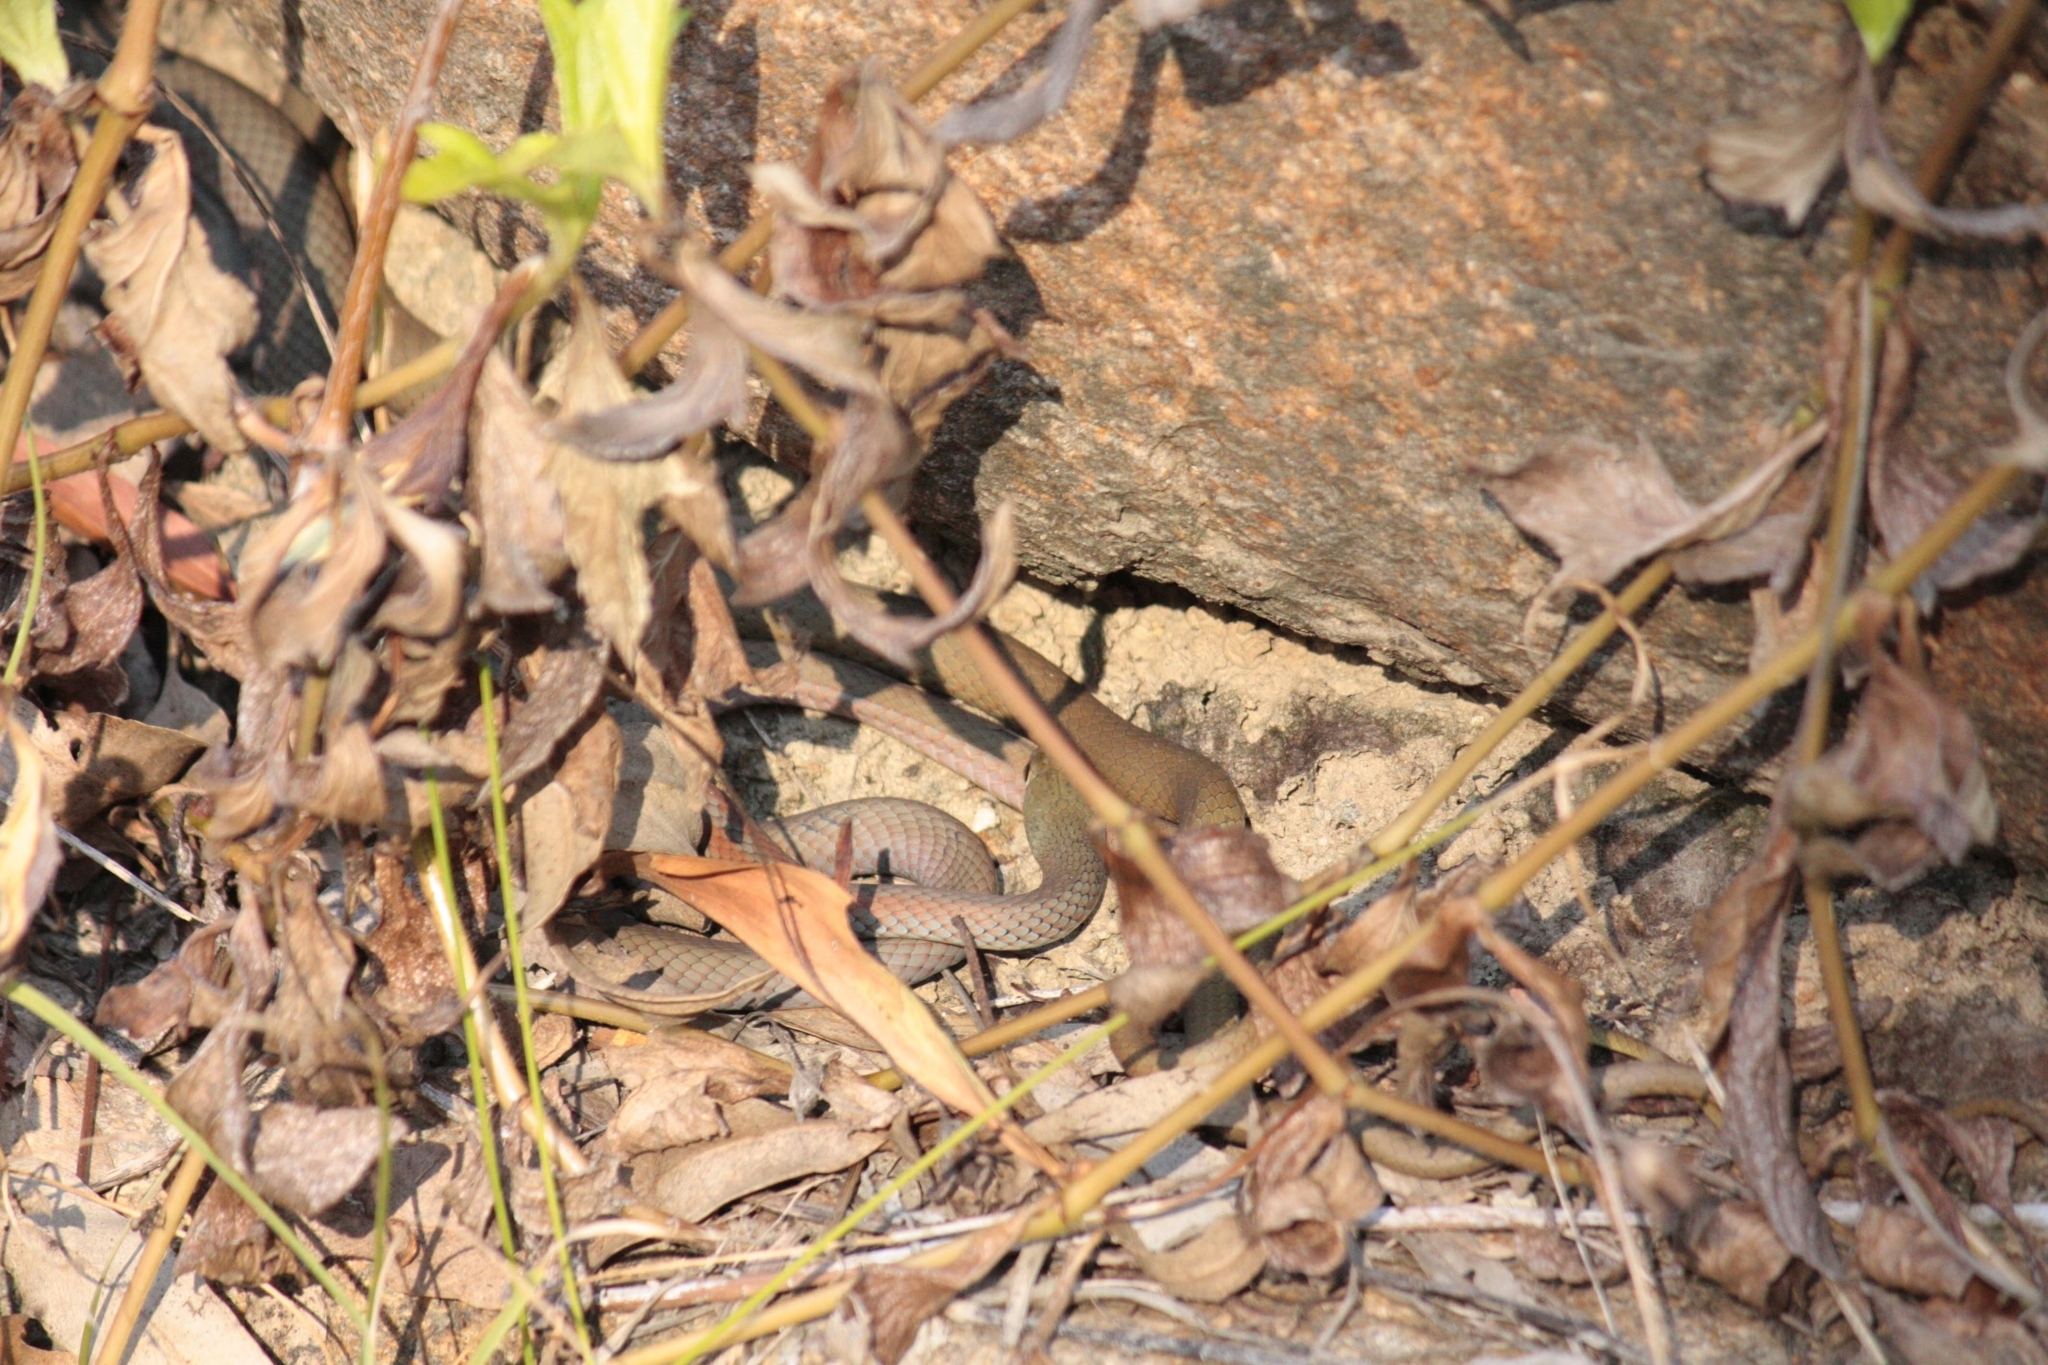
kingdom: Animalia
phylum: Chordata
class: Squamata
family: Elapidae
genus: Demansia
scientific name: Demansia psammophis
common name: Yellow-faced whip snake
